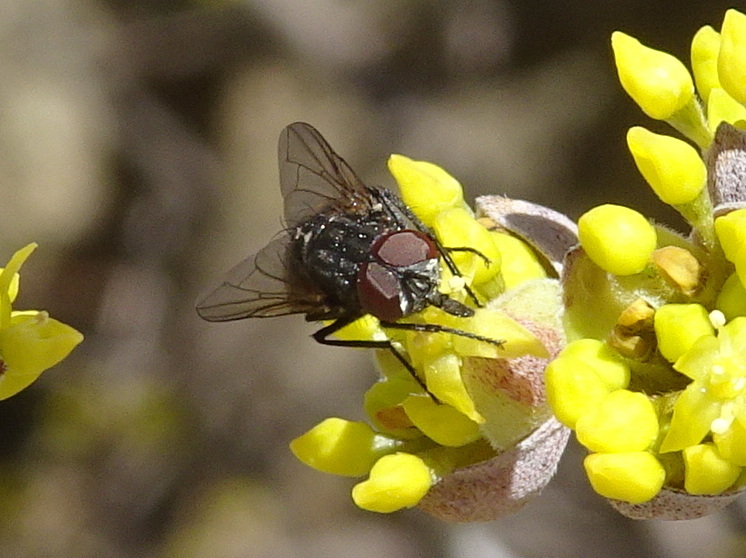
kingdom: Animalia
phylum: Arthropoda
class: Insecta
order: Diptera
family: Muscidae
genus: Musca
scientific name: Musca autumnalis
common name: Face fly
